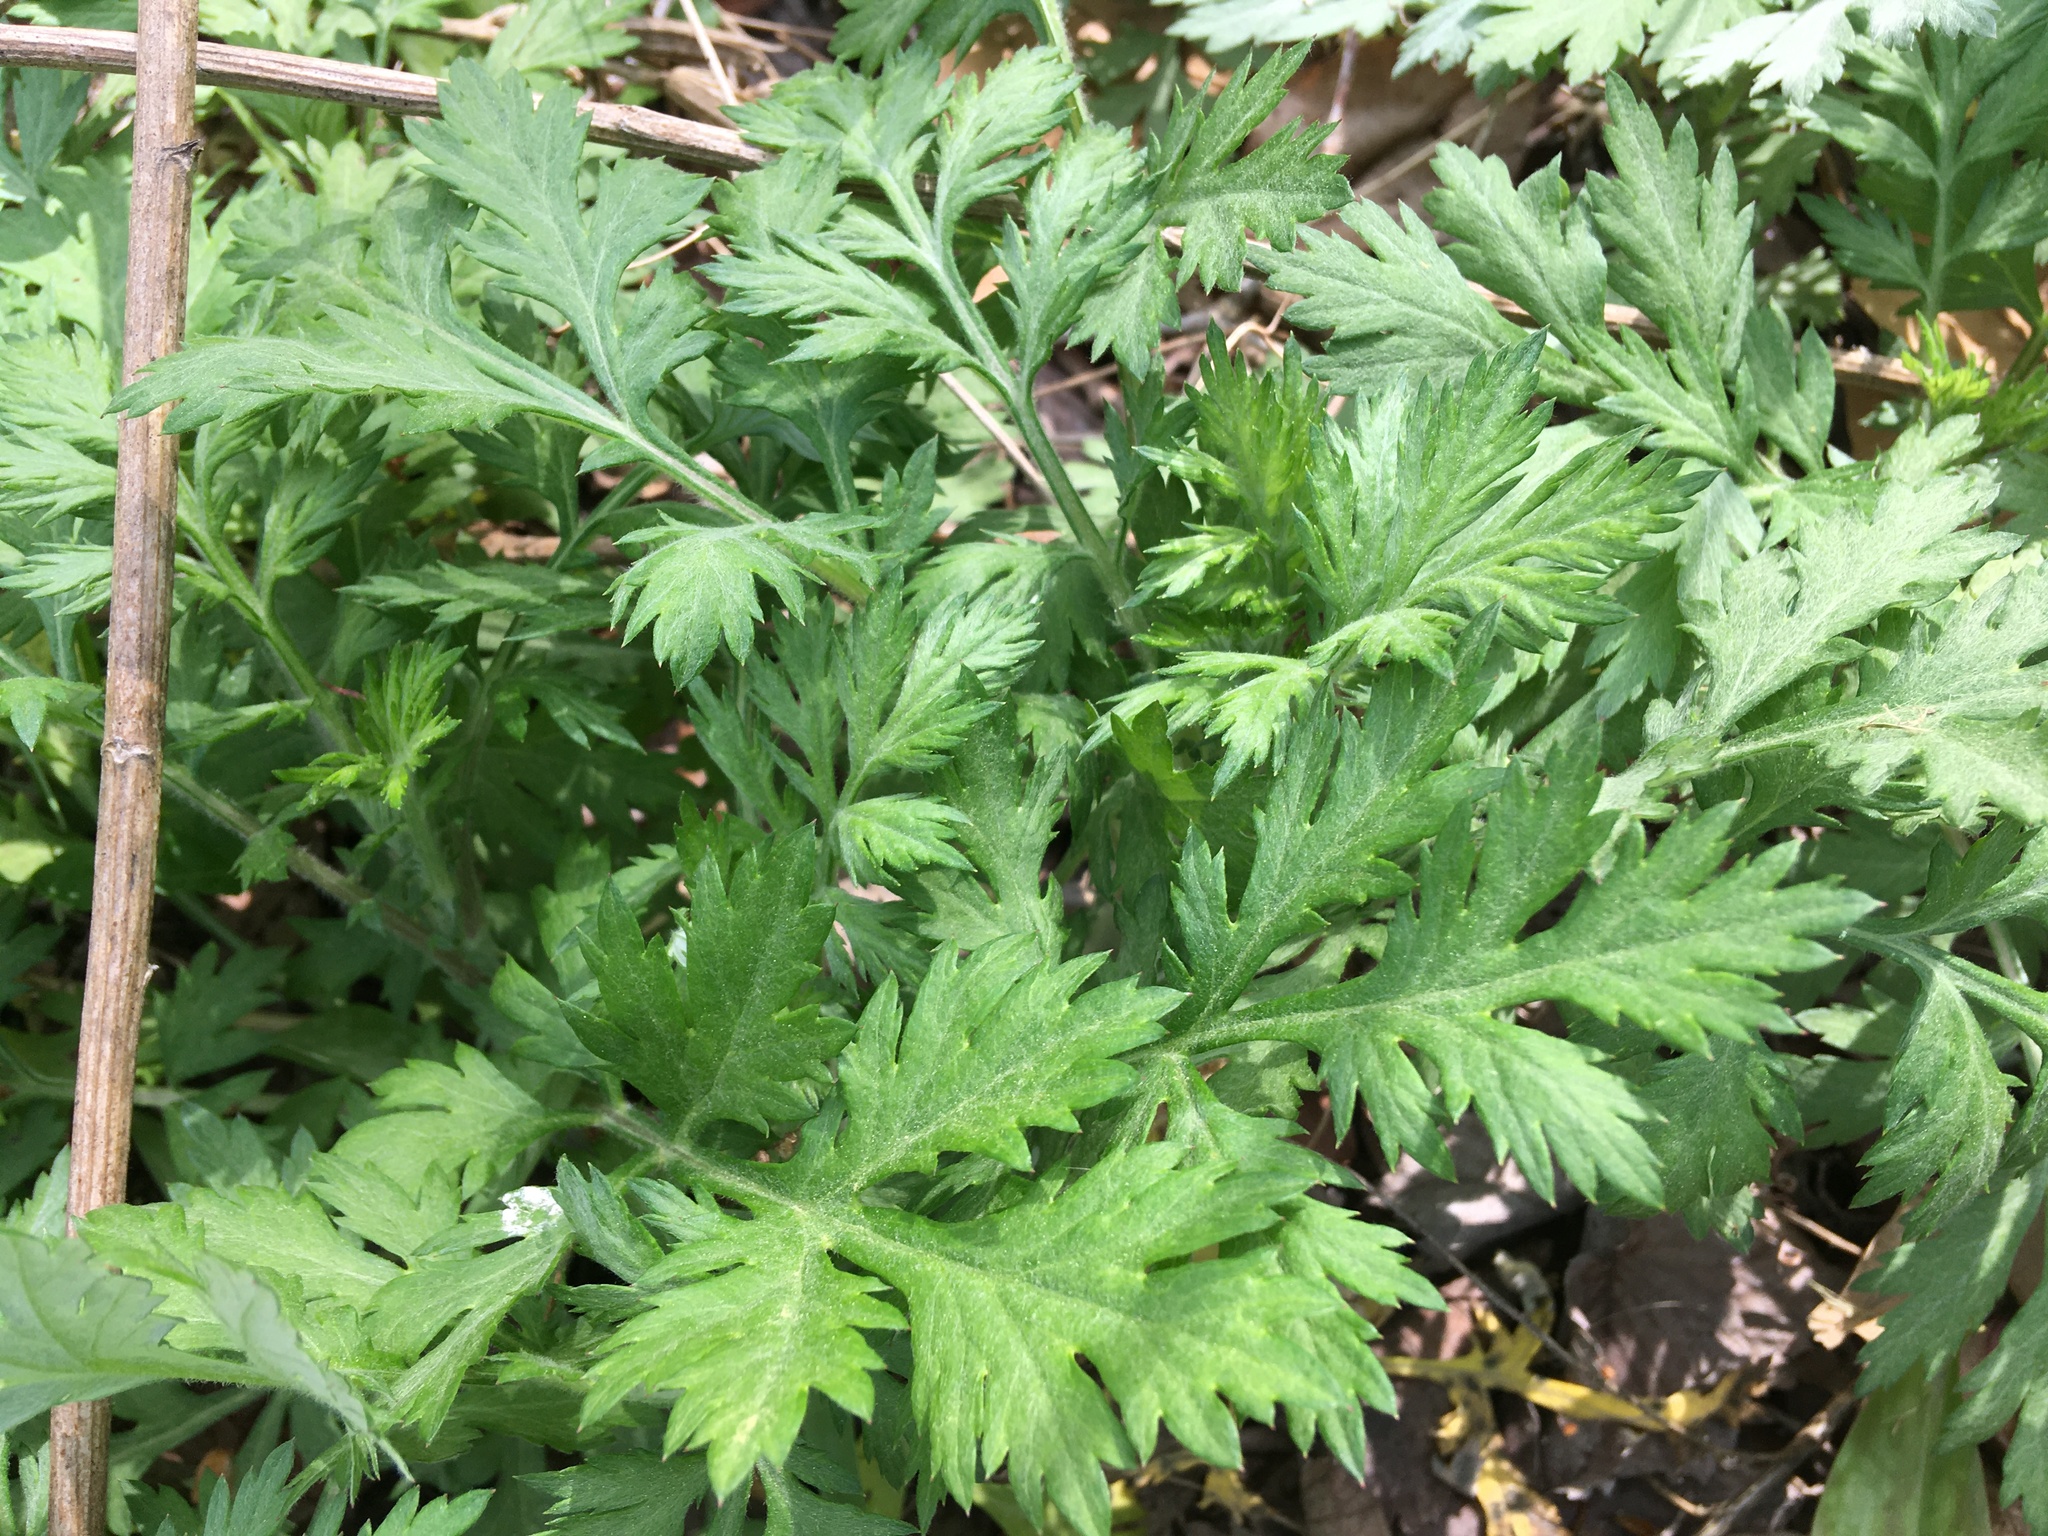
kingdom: Plantae
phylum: Tracheophyta
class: Magnoliopsida
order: Asterales
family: Asteraceae
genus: Artemisia
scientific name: Artemisia vulgaris
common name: Mugwort
